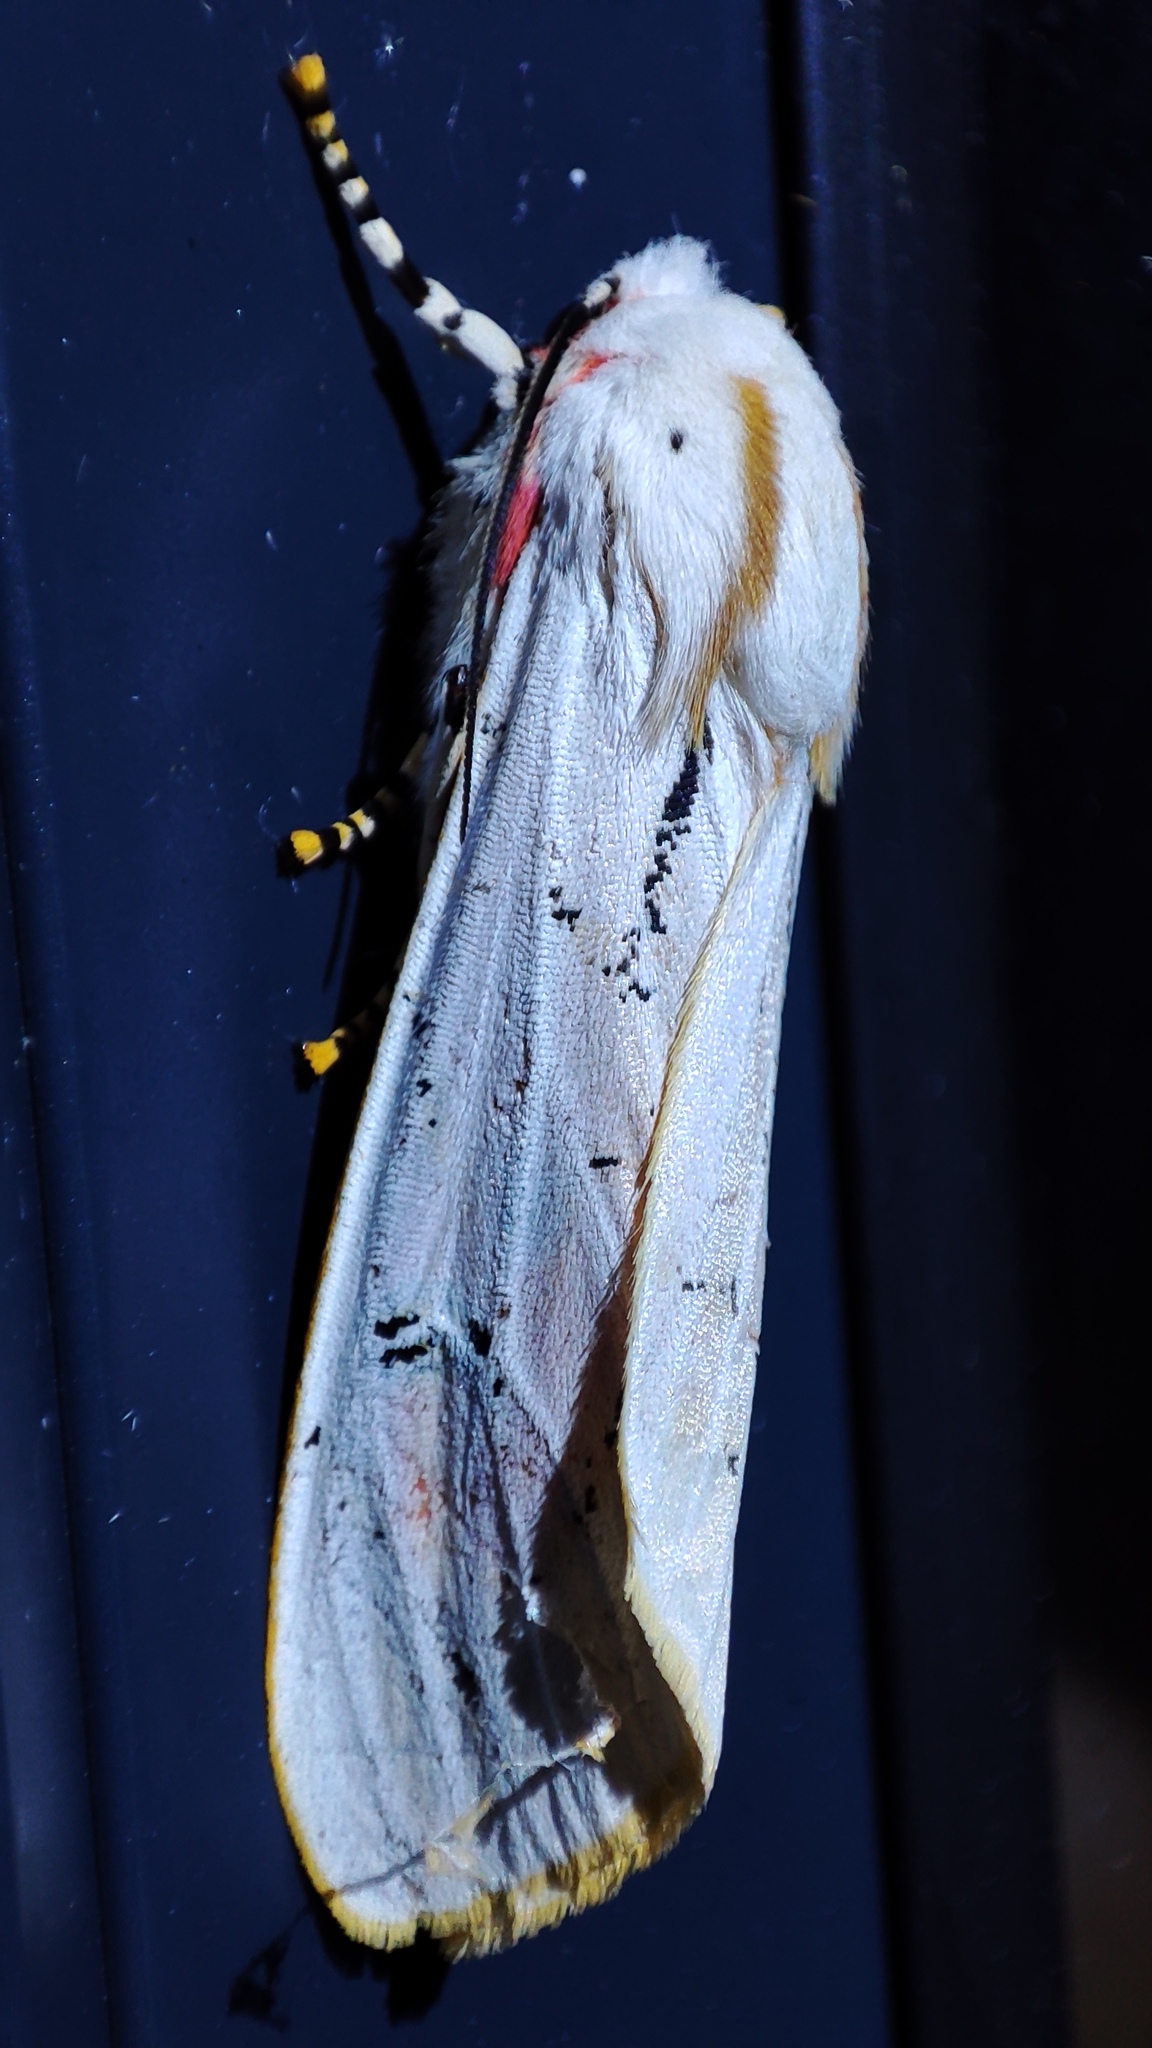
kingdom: Animalia
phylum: Arthropoda
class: Insecta
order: Lepidoptera
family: Erebidae
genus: Rhodogastria
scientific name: Rhodogastria amasis
